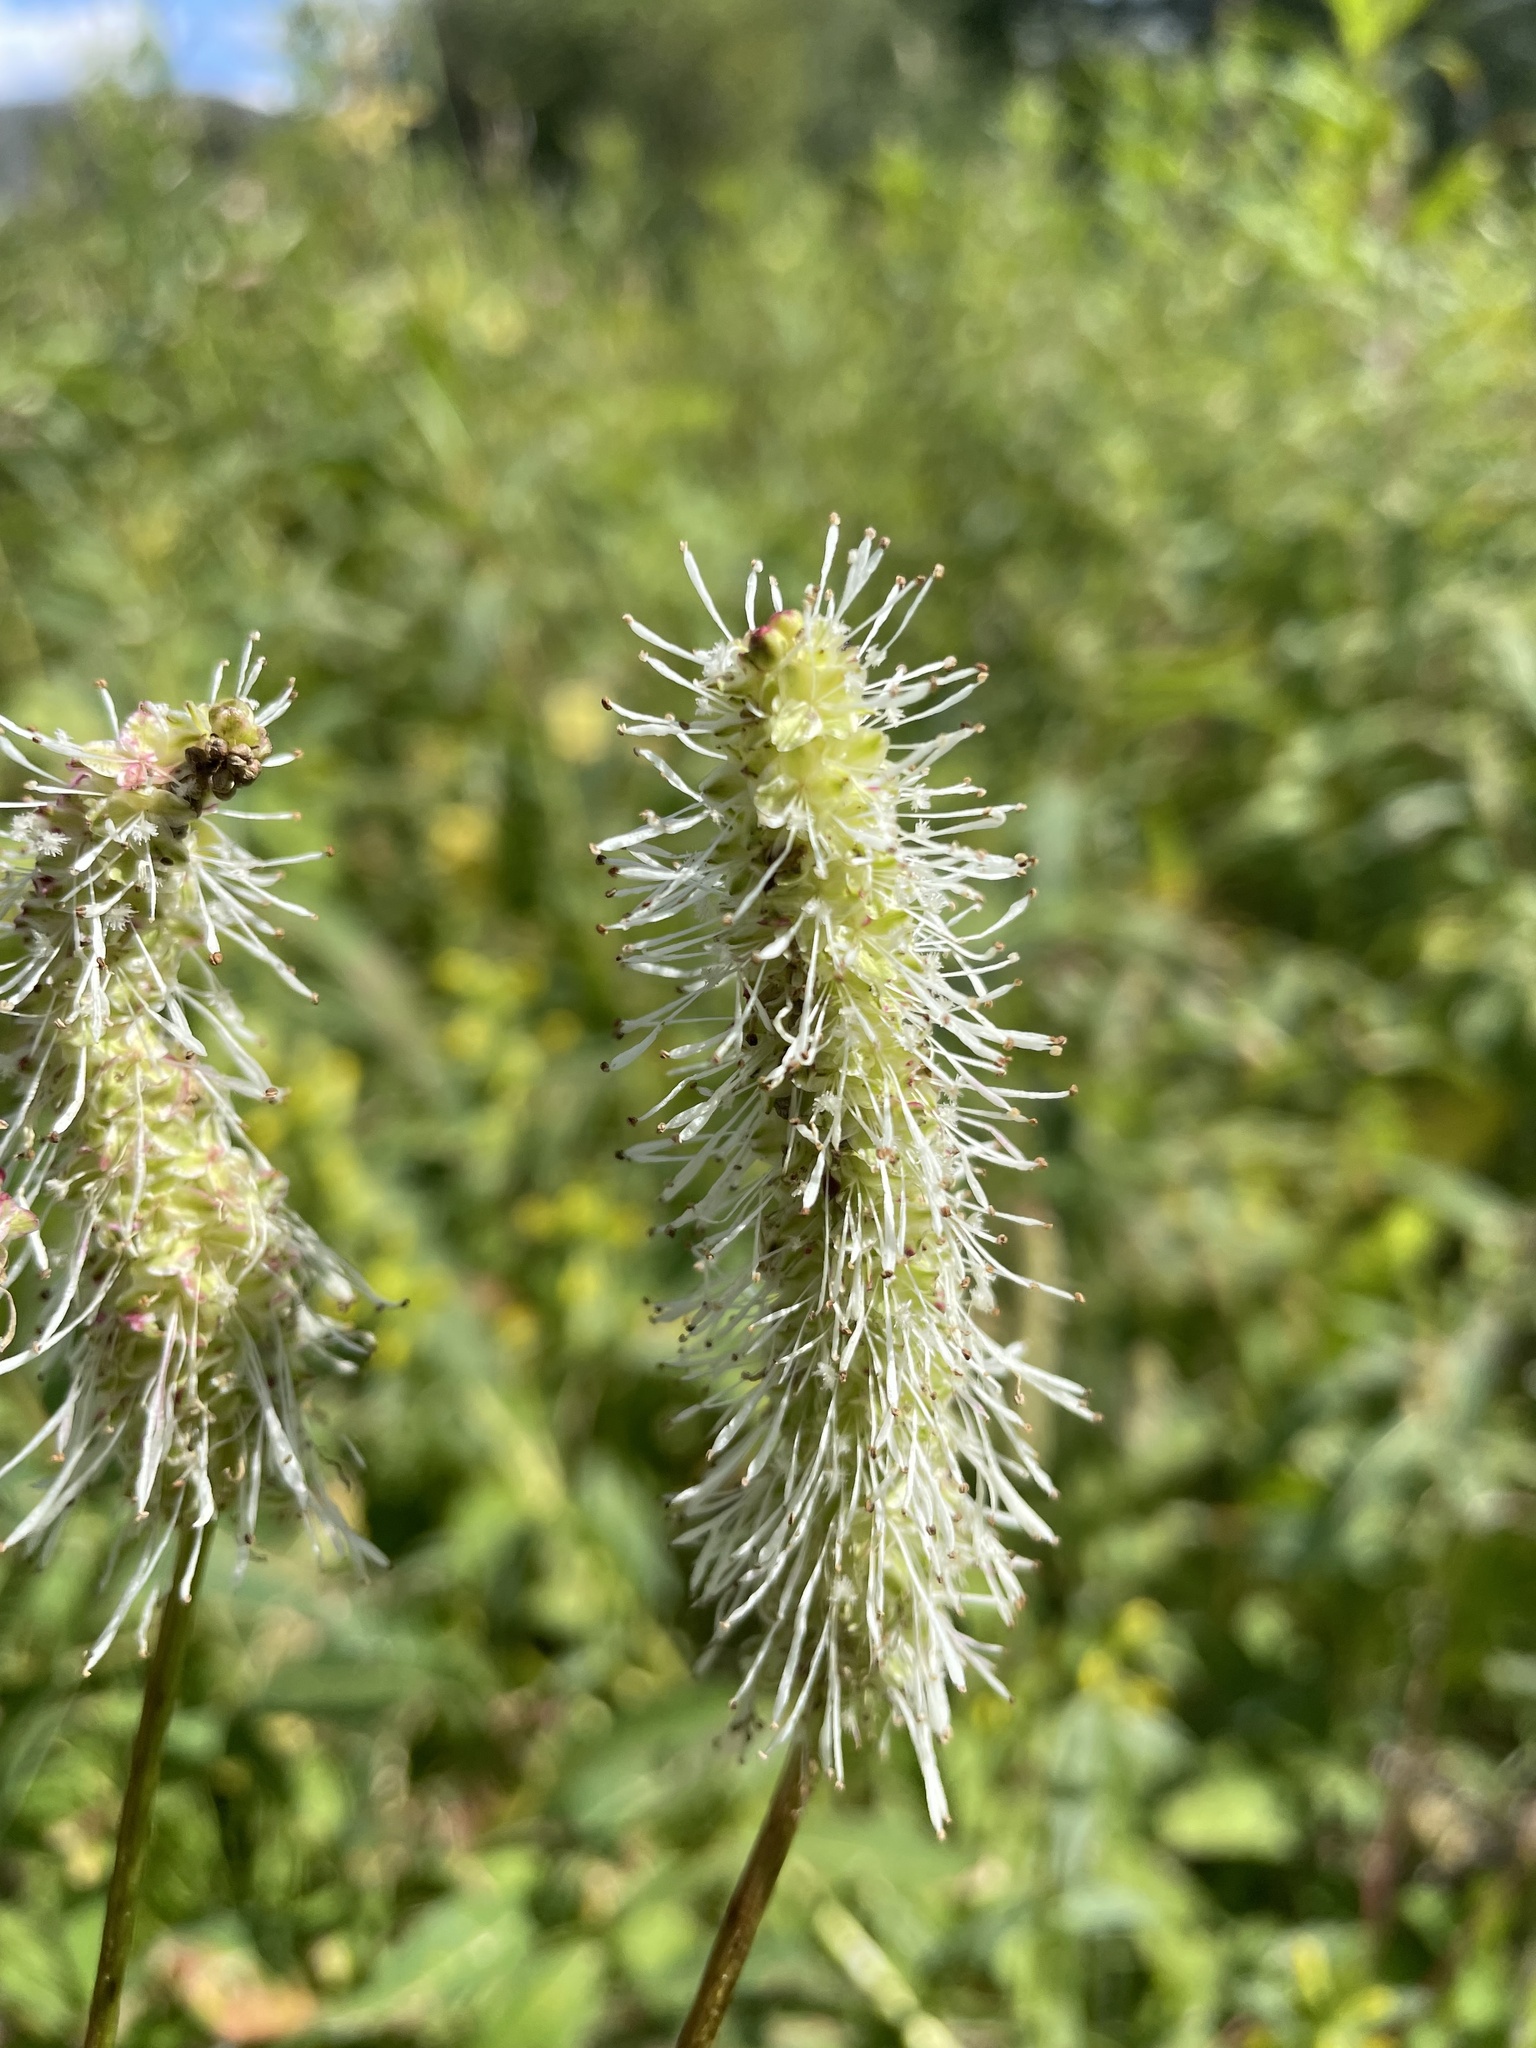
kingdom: Plantae
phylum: Tracheophyta
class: Magnoliopsida
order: Rosales
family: Rosaceae
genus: Sanguisorba
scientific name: Sanguisorba stipulata
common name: Sitka burnet
